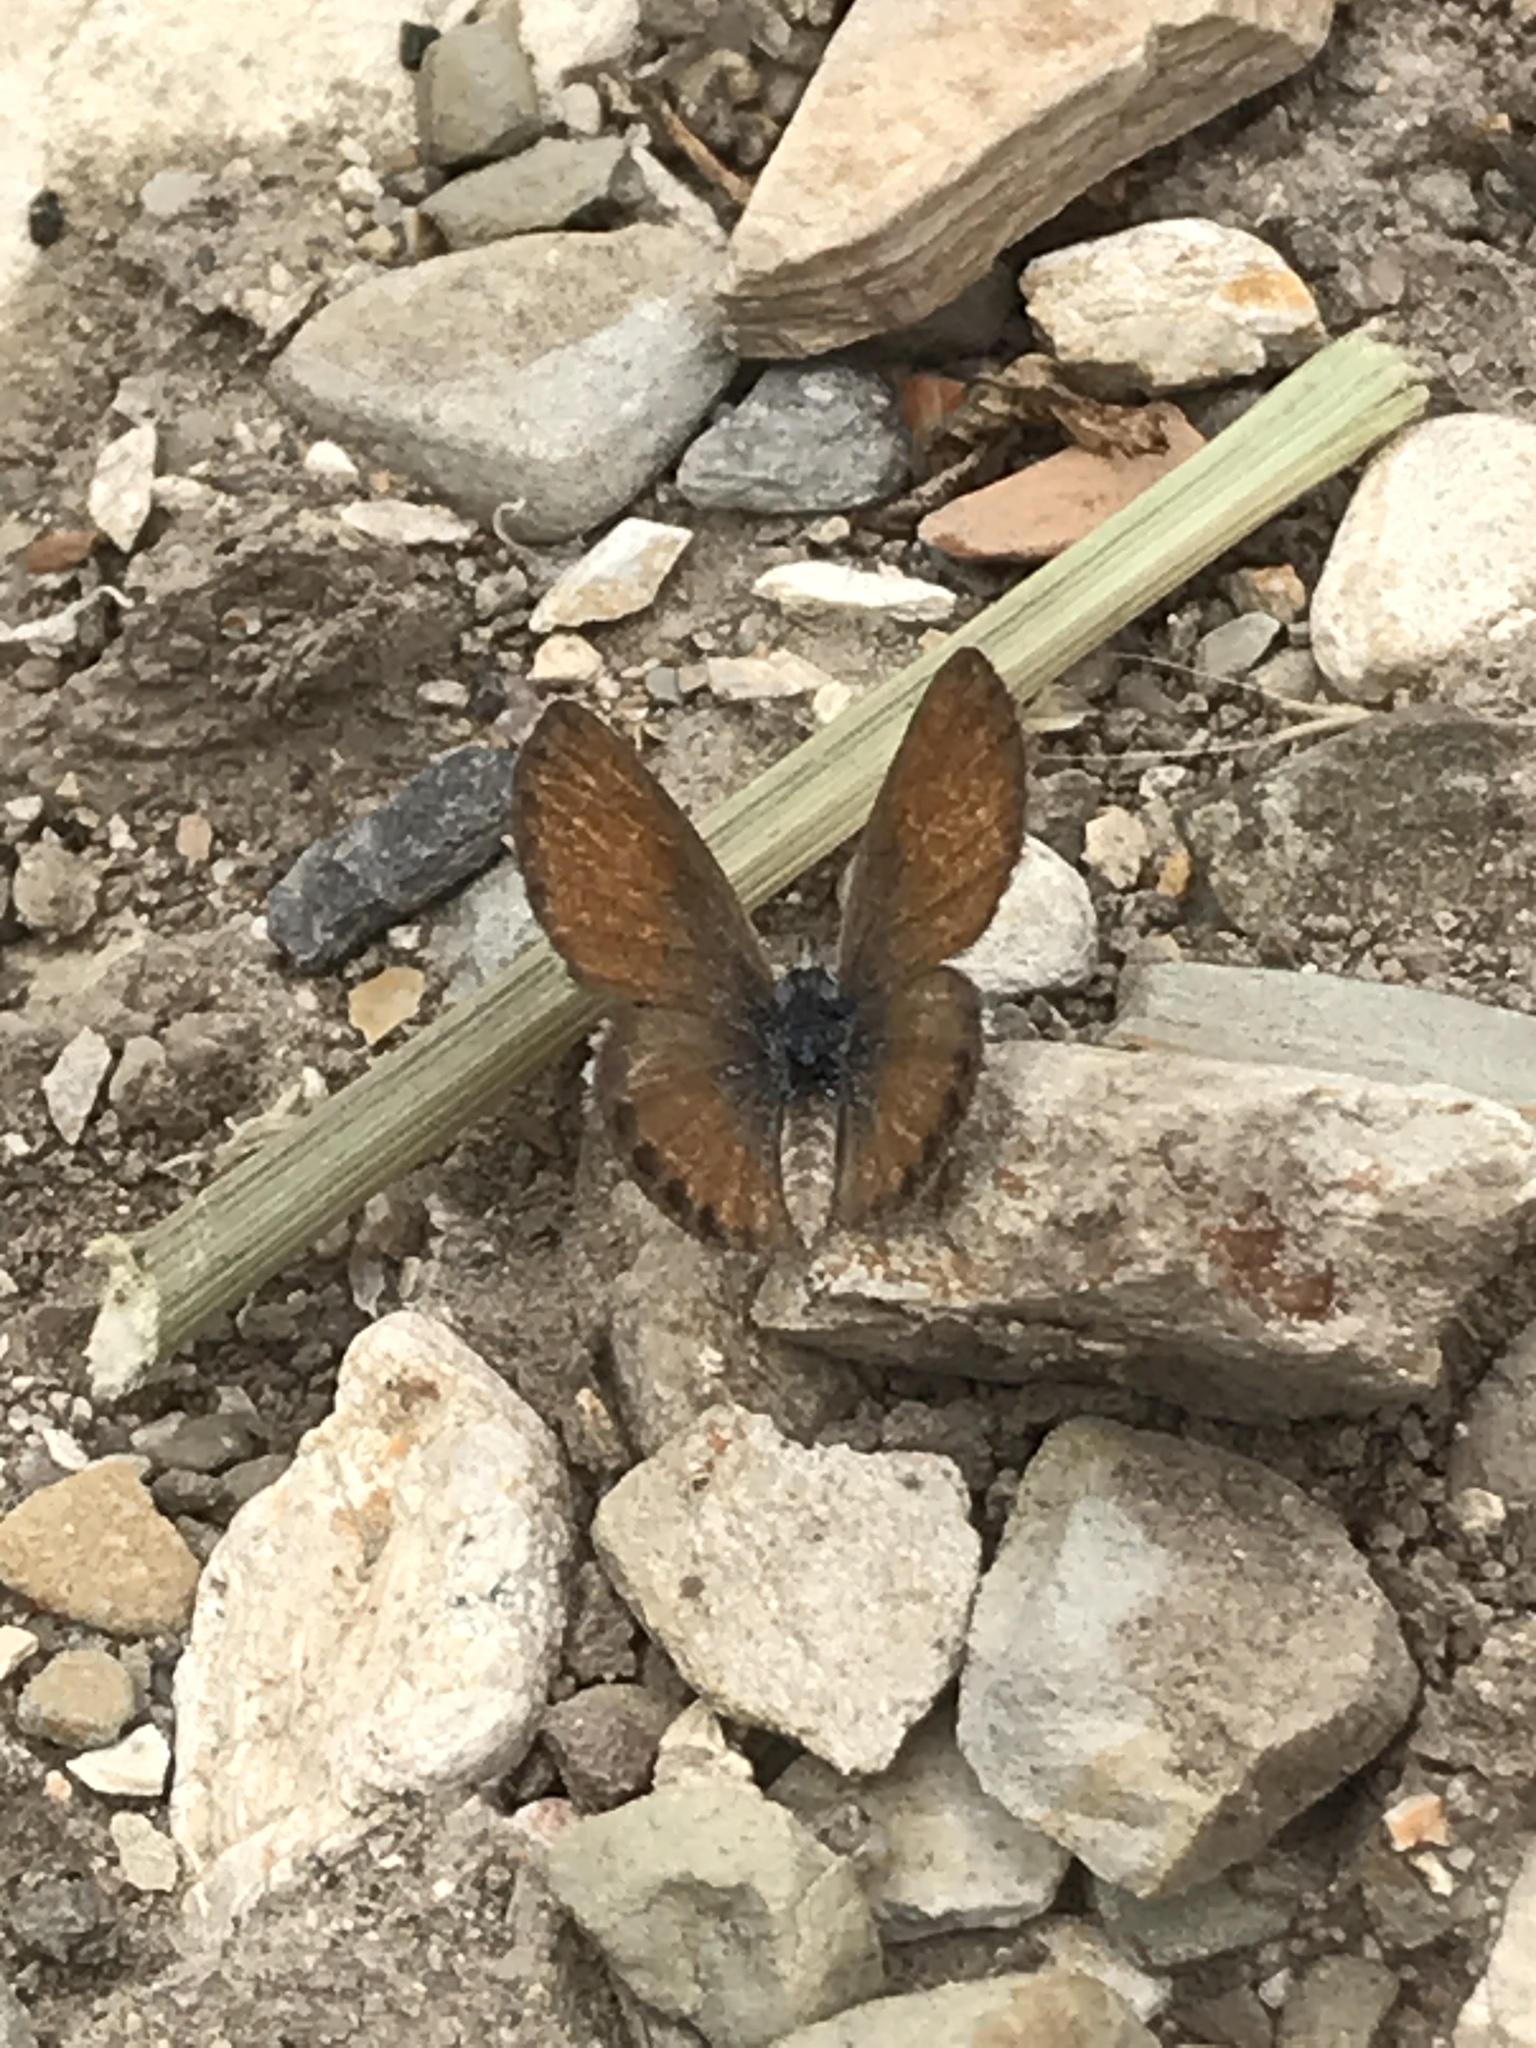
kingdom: Animalia
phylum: Arthropoda
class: Insecta
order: Lepidoptera
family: Lycaenidae
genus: Brephidium
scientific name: Brephidium exilis
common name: Pygmy blue
